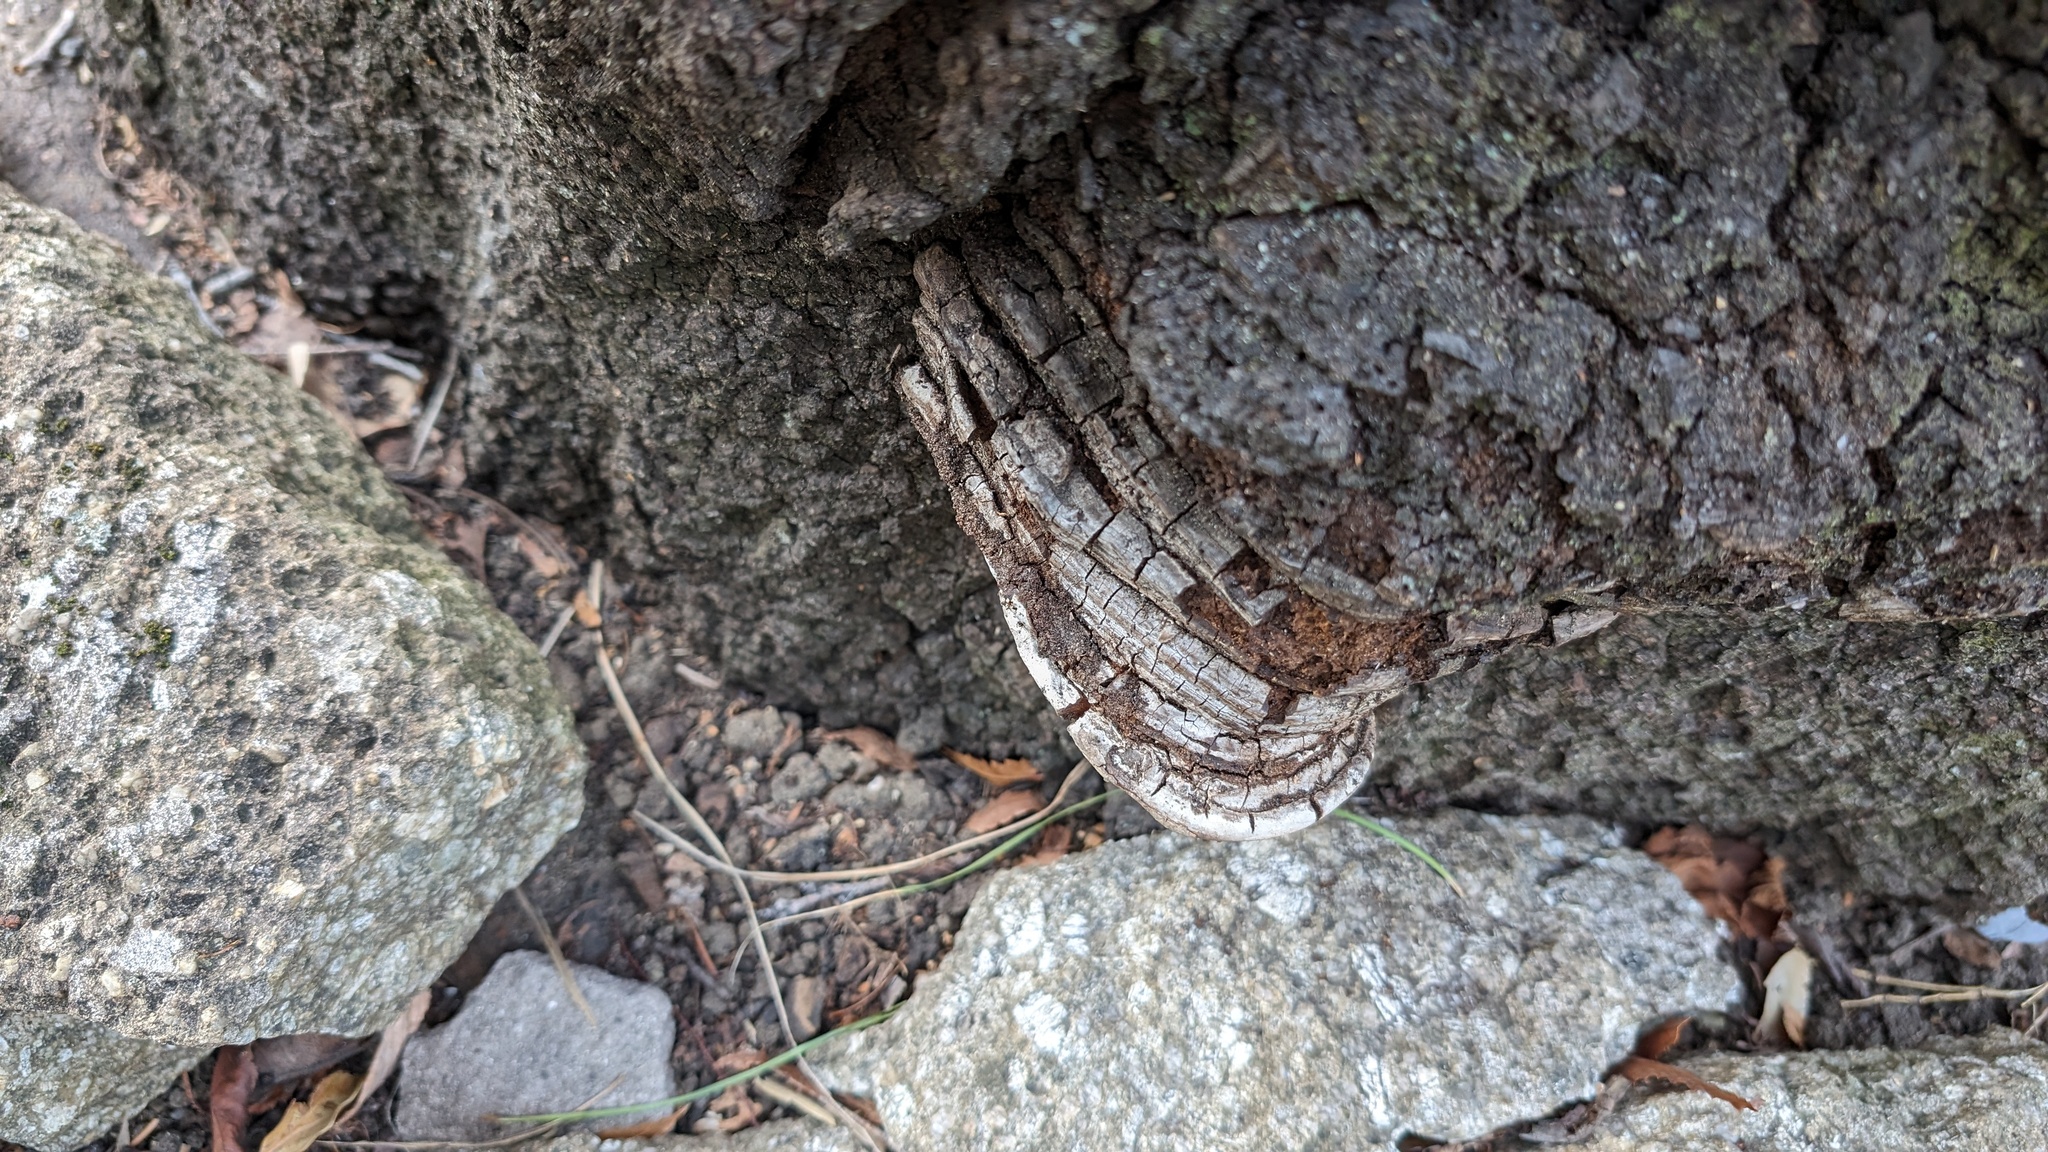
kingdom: Fungi
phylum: Basidiomycota
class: Agaricomycetes
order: Polyporales
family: Polyporaceae
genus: Ganoderma
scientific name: Ganoderma applanatum
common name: Artist's bracket
